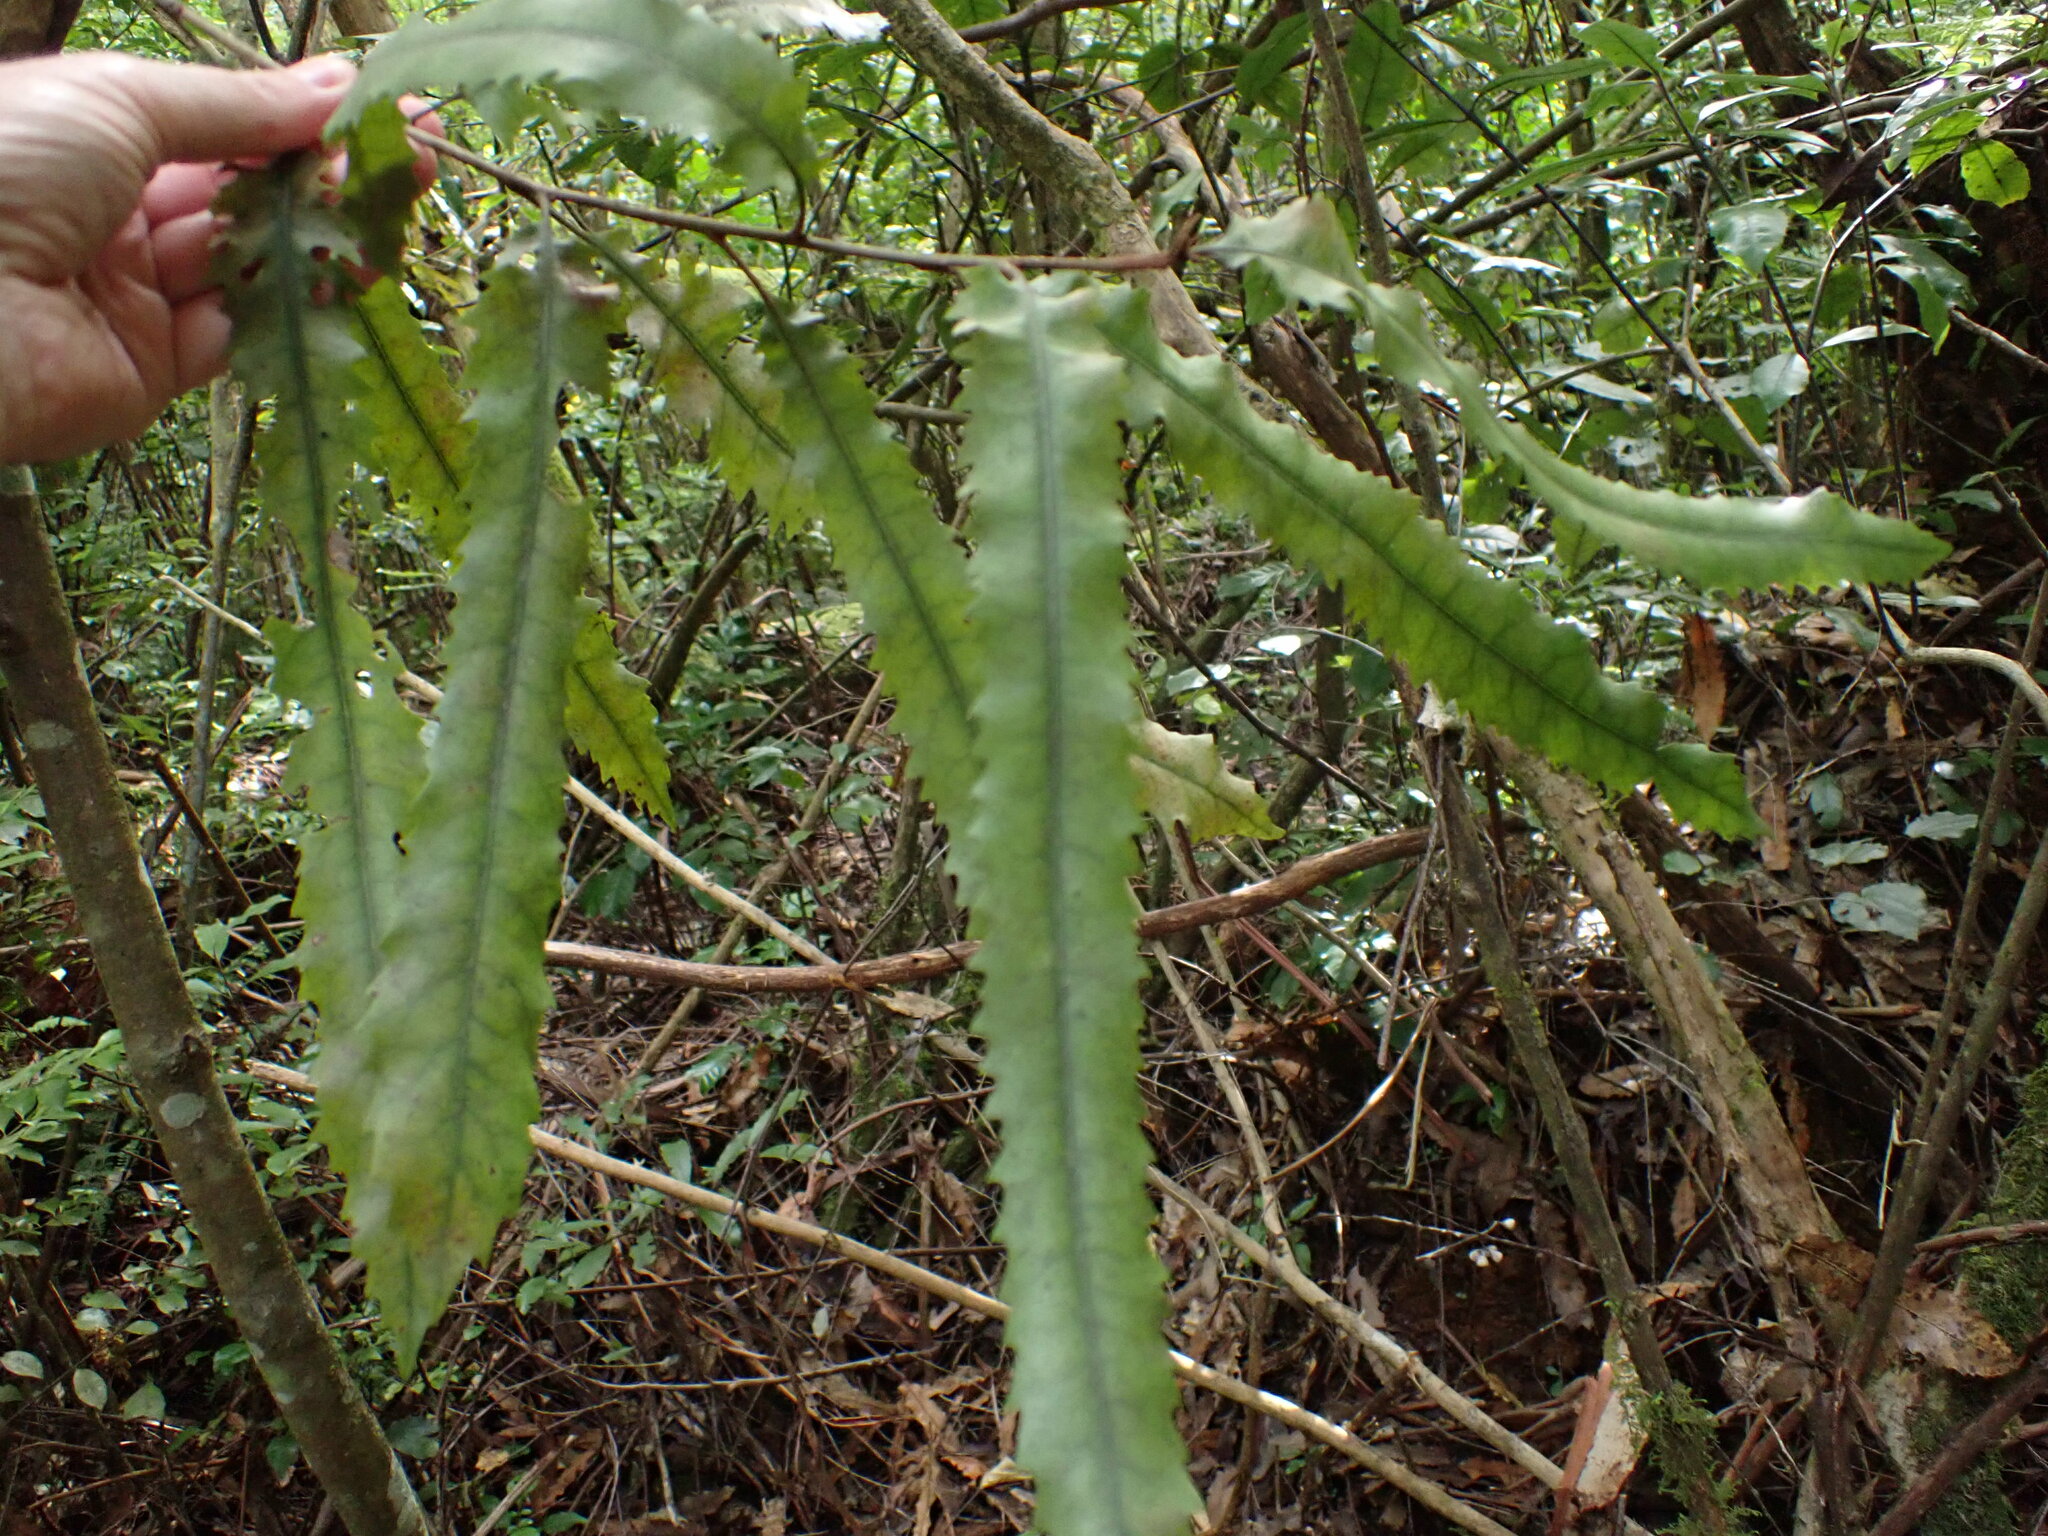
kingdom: Plantae
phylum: Tracheophyta
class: Magnoliopsida
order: Proteales
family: Proteaceae
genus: Knightia
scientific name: Knightia excelsa
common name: New zealand-honeysuckle
